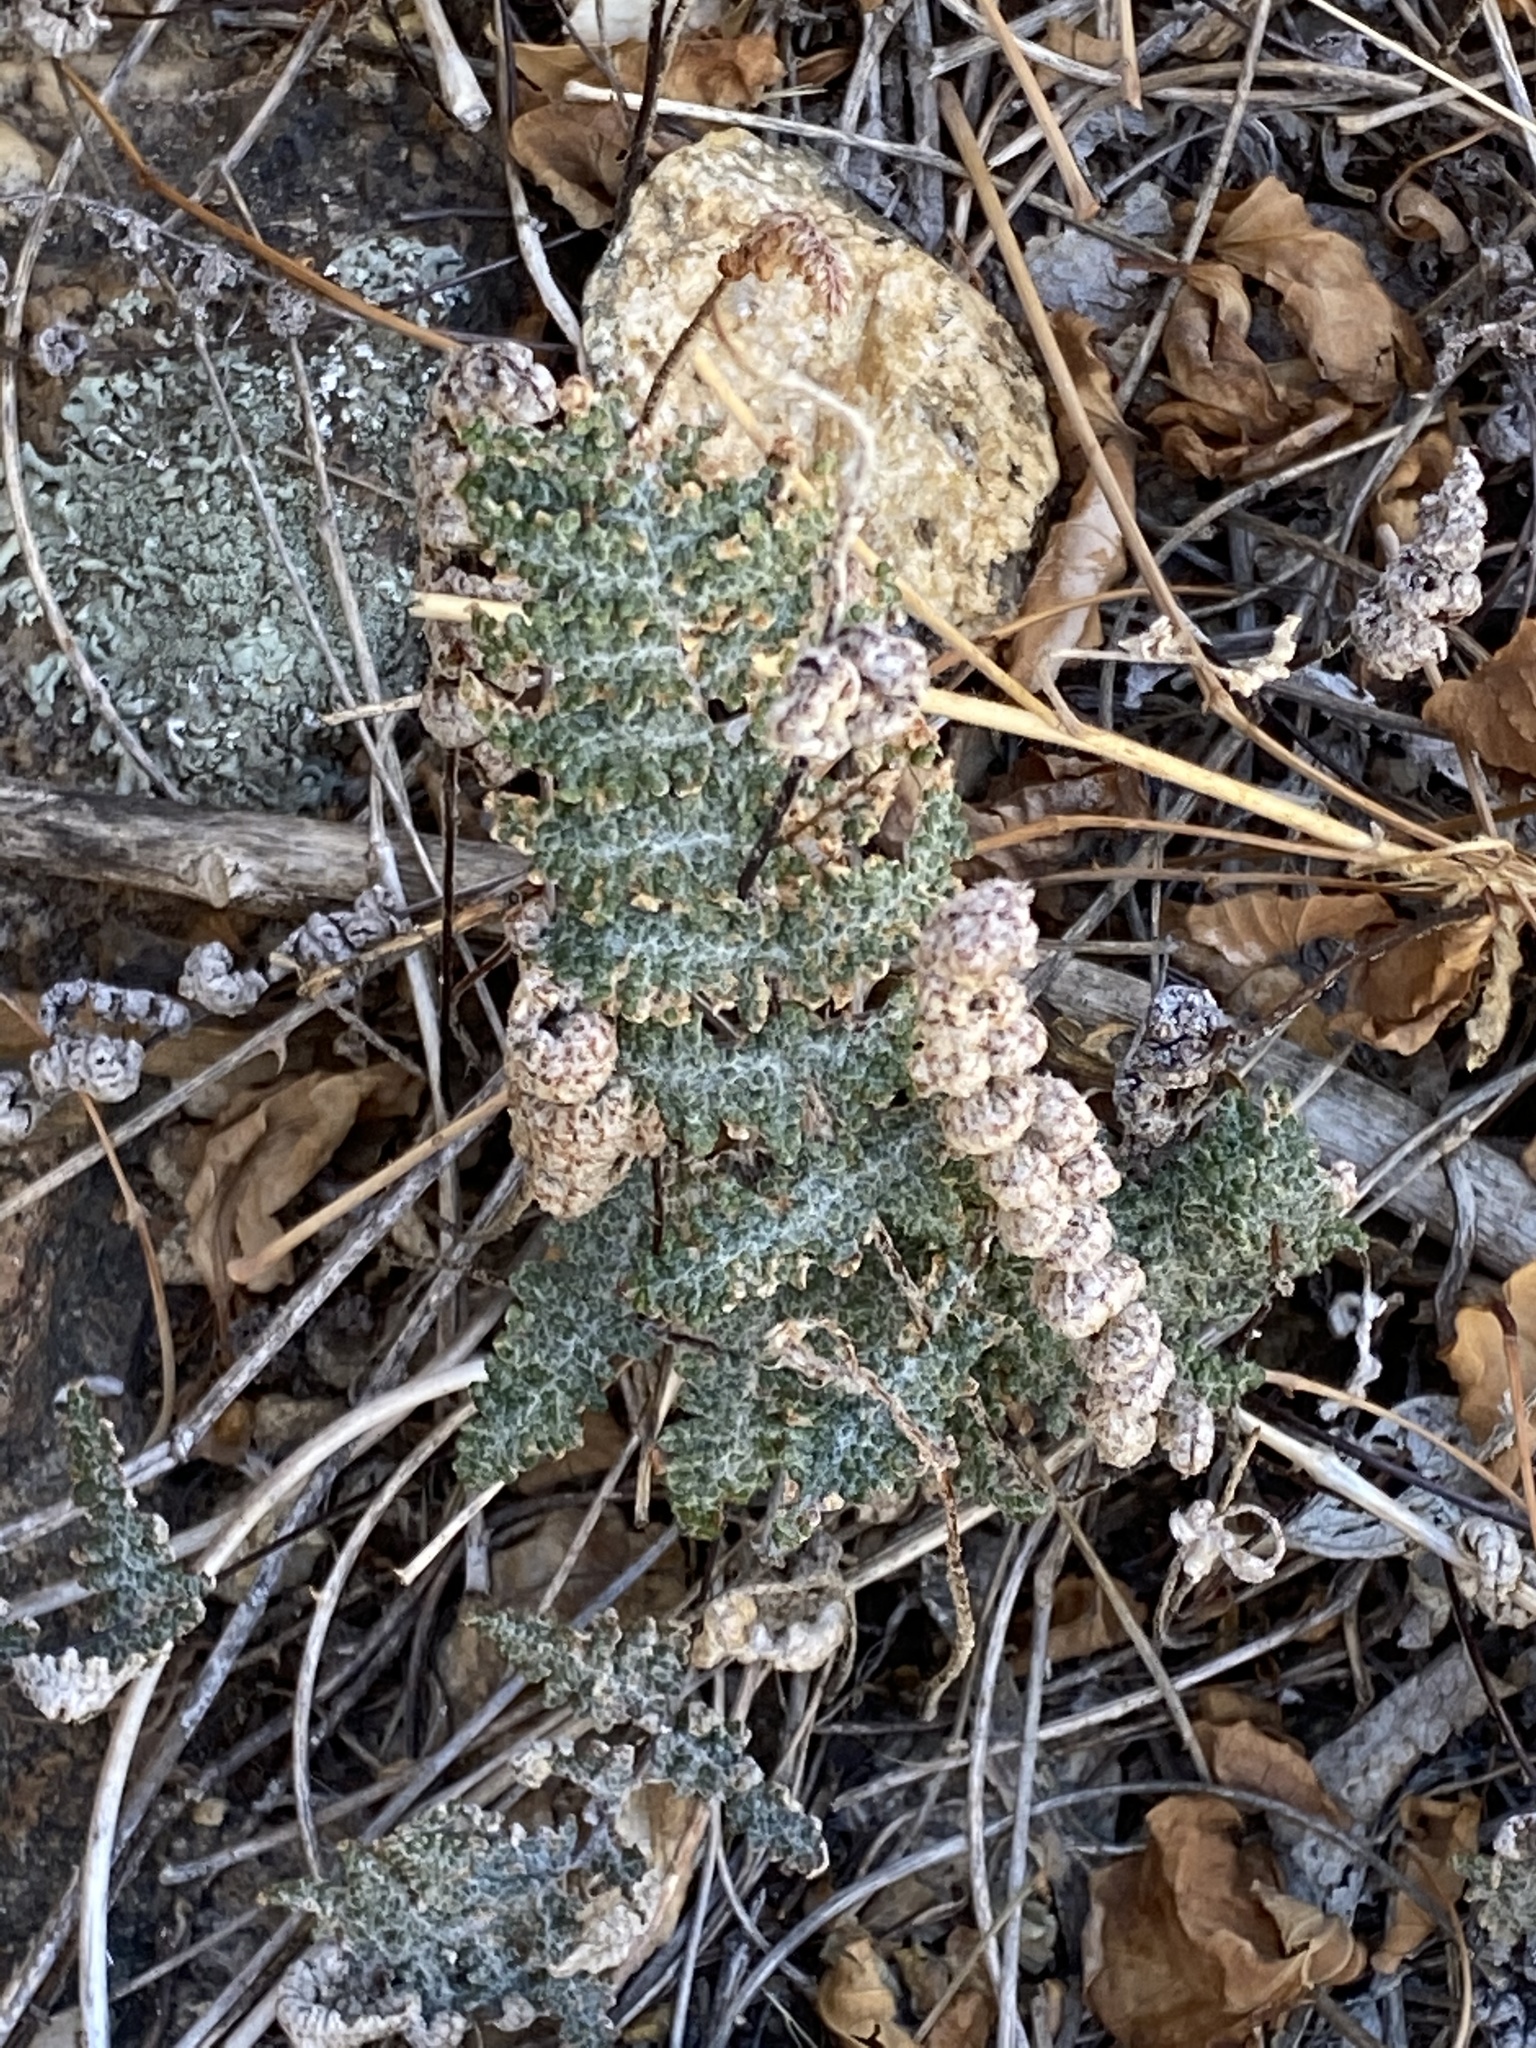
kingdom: Plantae
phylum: Tracheophyta
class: Polypodiopsida
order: Polypodiales
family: Pteridaceae
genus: Myriopteris
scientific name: Myriopteris covillei
